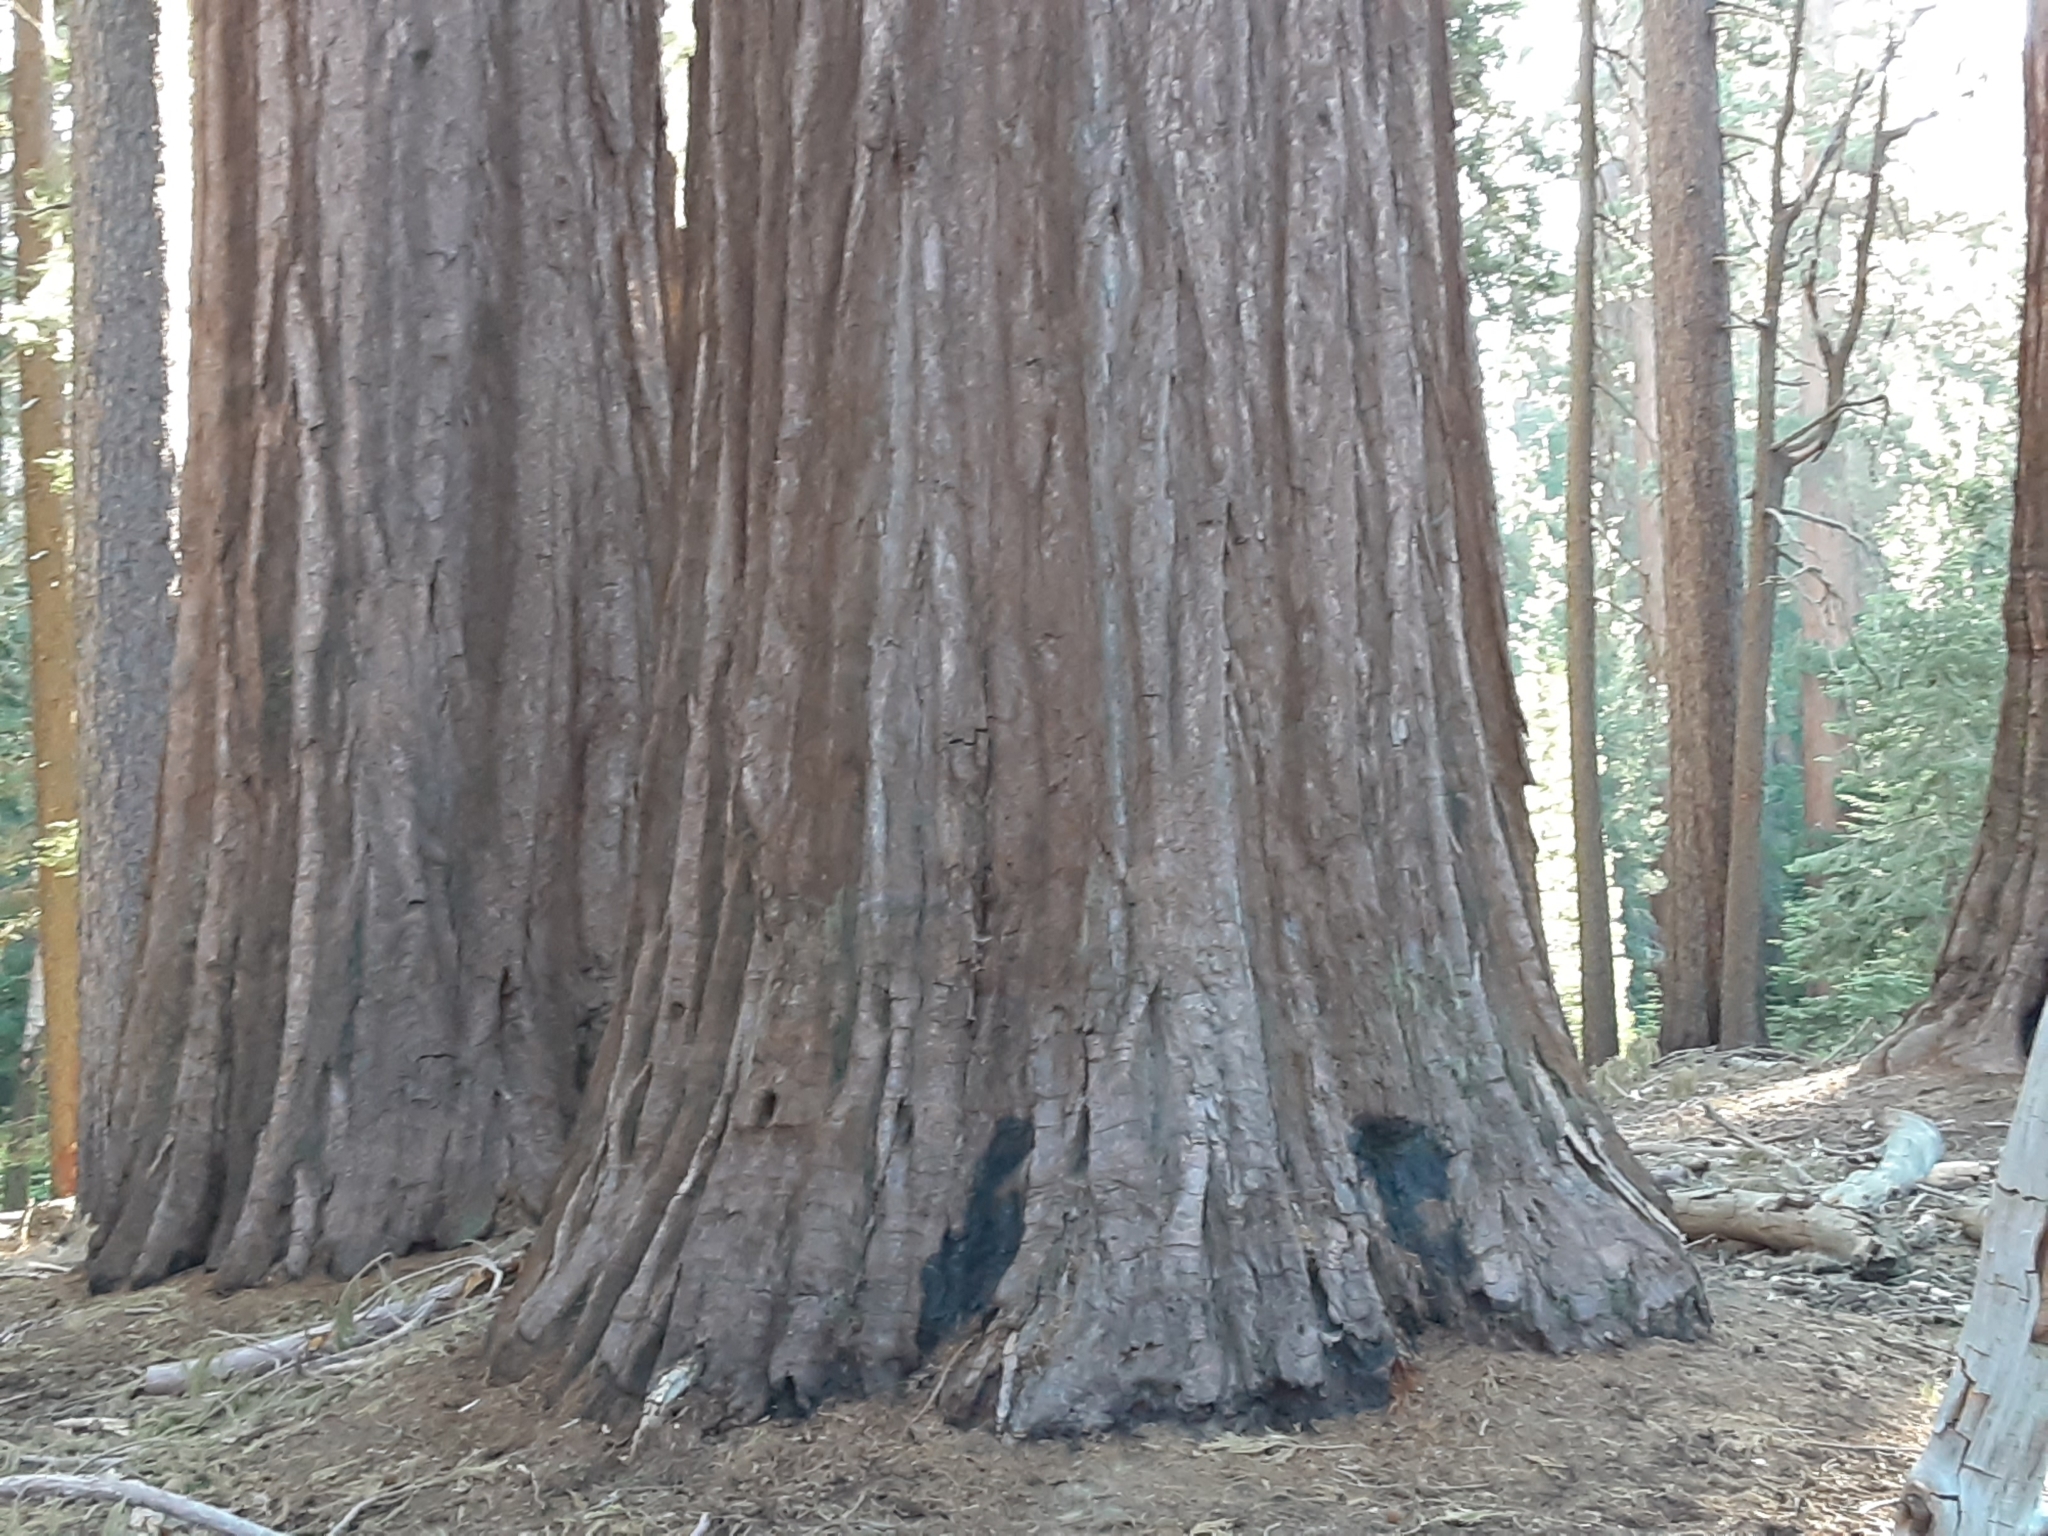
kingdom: Plantae
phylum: Tracheophyta
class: Pinopsida
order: Pinales
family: Cupressaceae
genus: Sequoiadendron
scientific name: Sequoiadendron giganteum
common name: Wellingtonia
